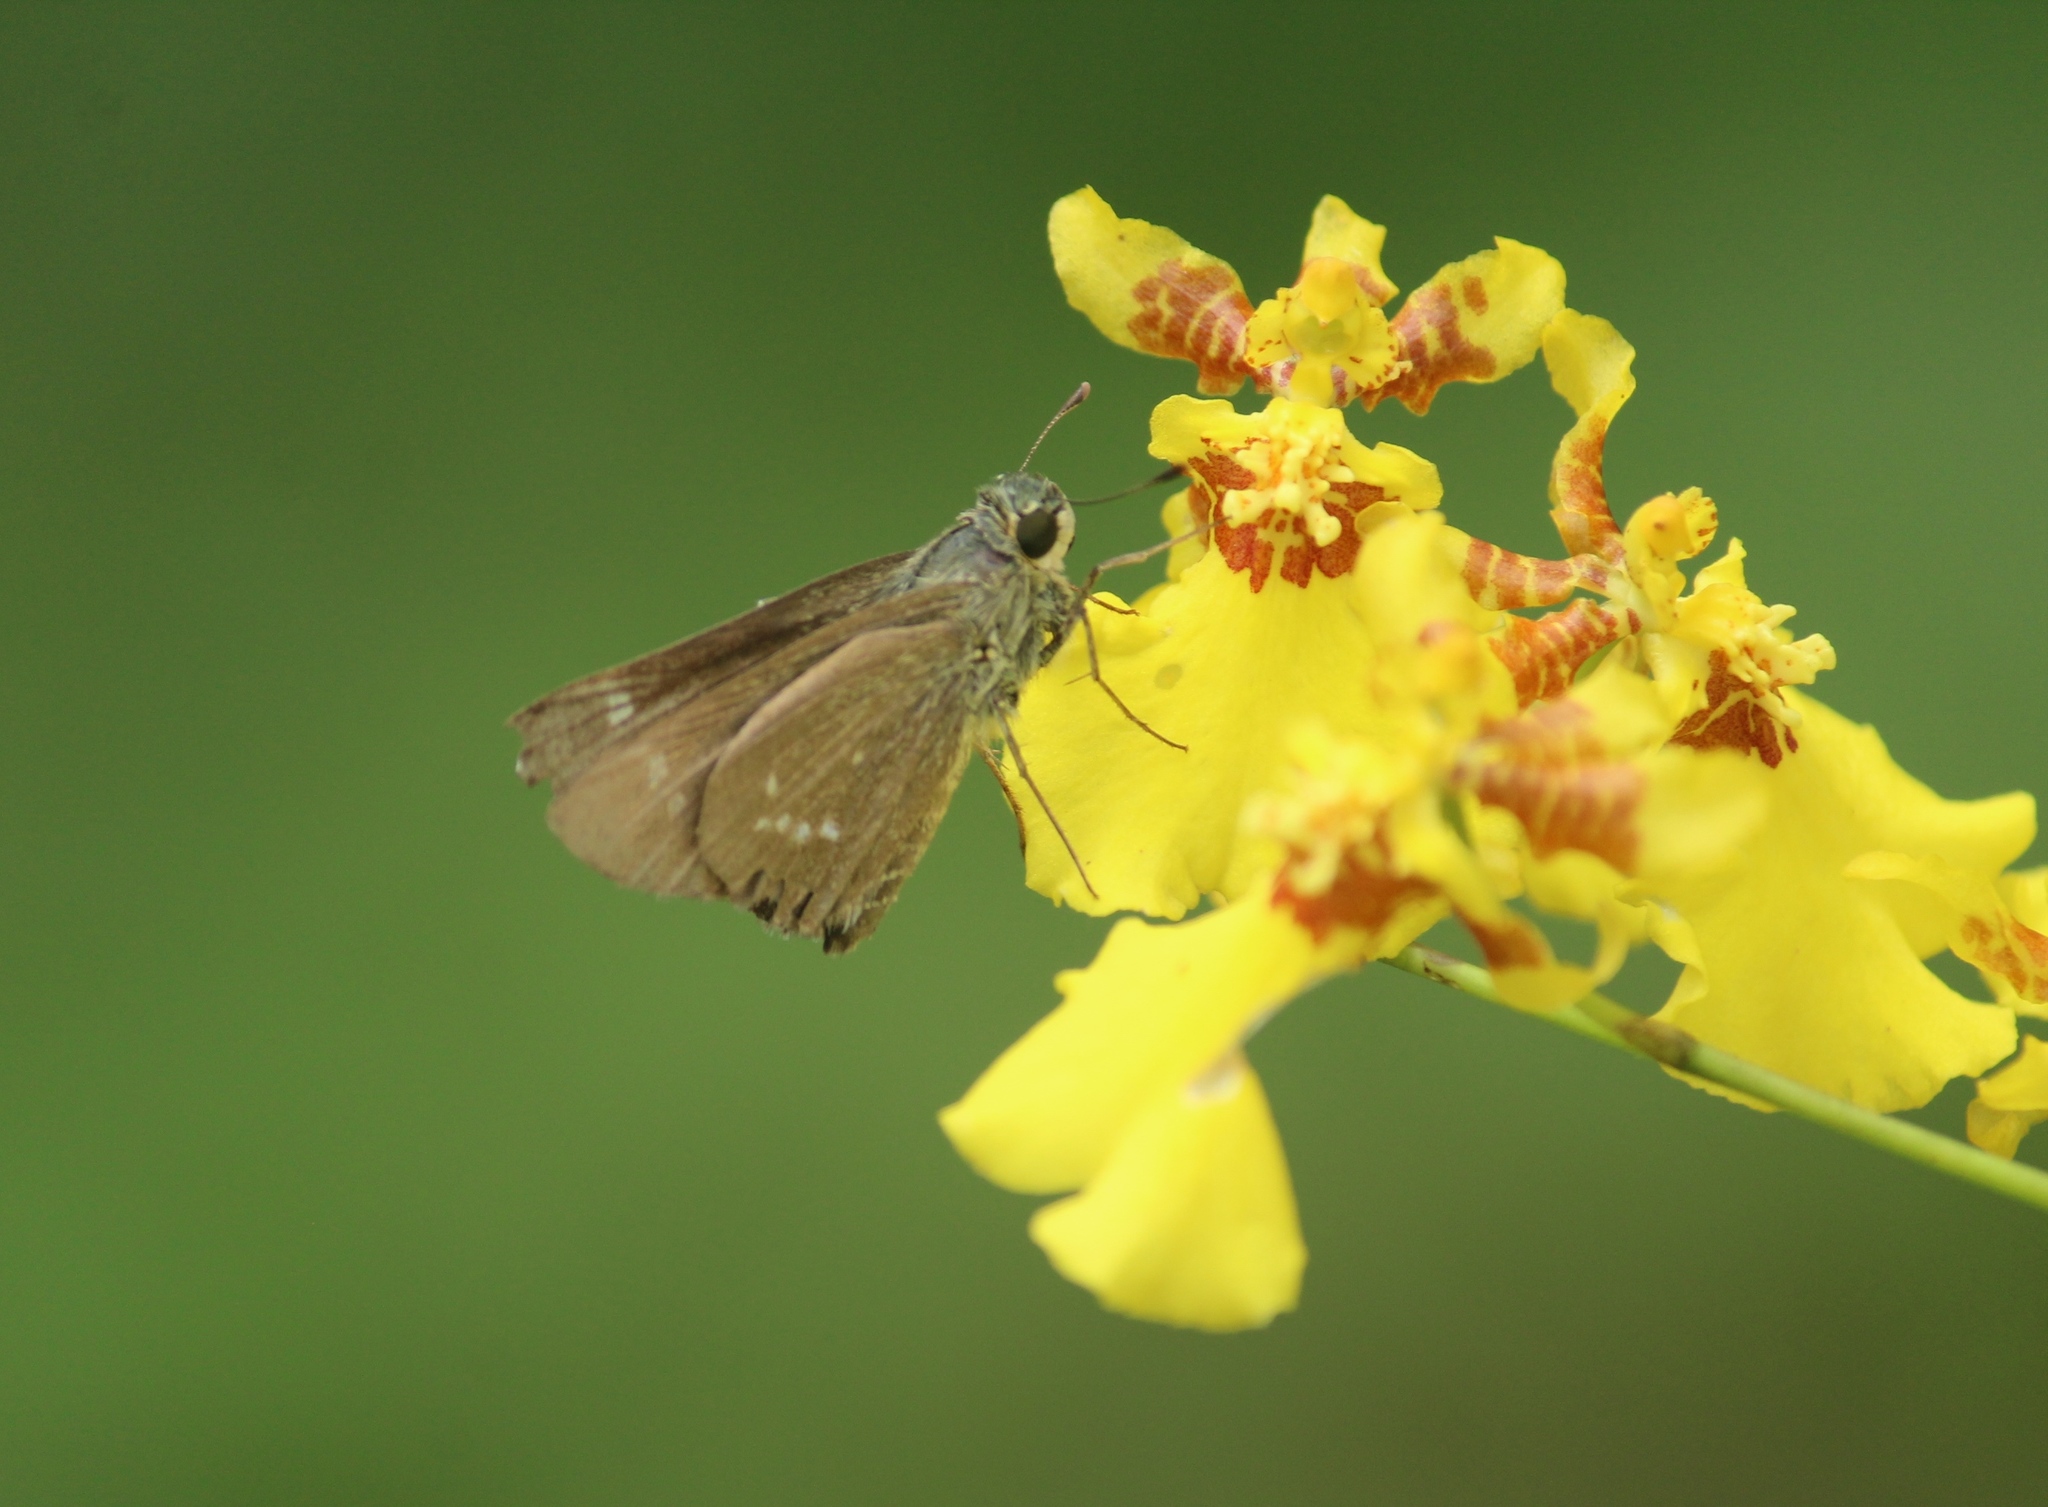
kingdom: Animalia
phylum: Arthropoda
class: Insecta
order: Lepidoptera
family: Hesperiidae
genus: Parnara
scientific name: Parnara naso
